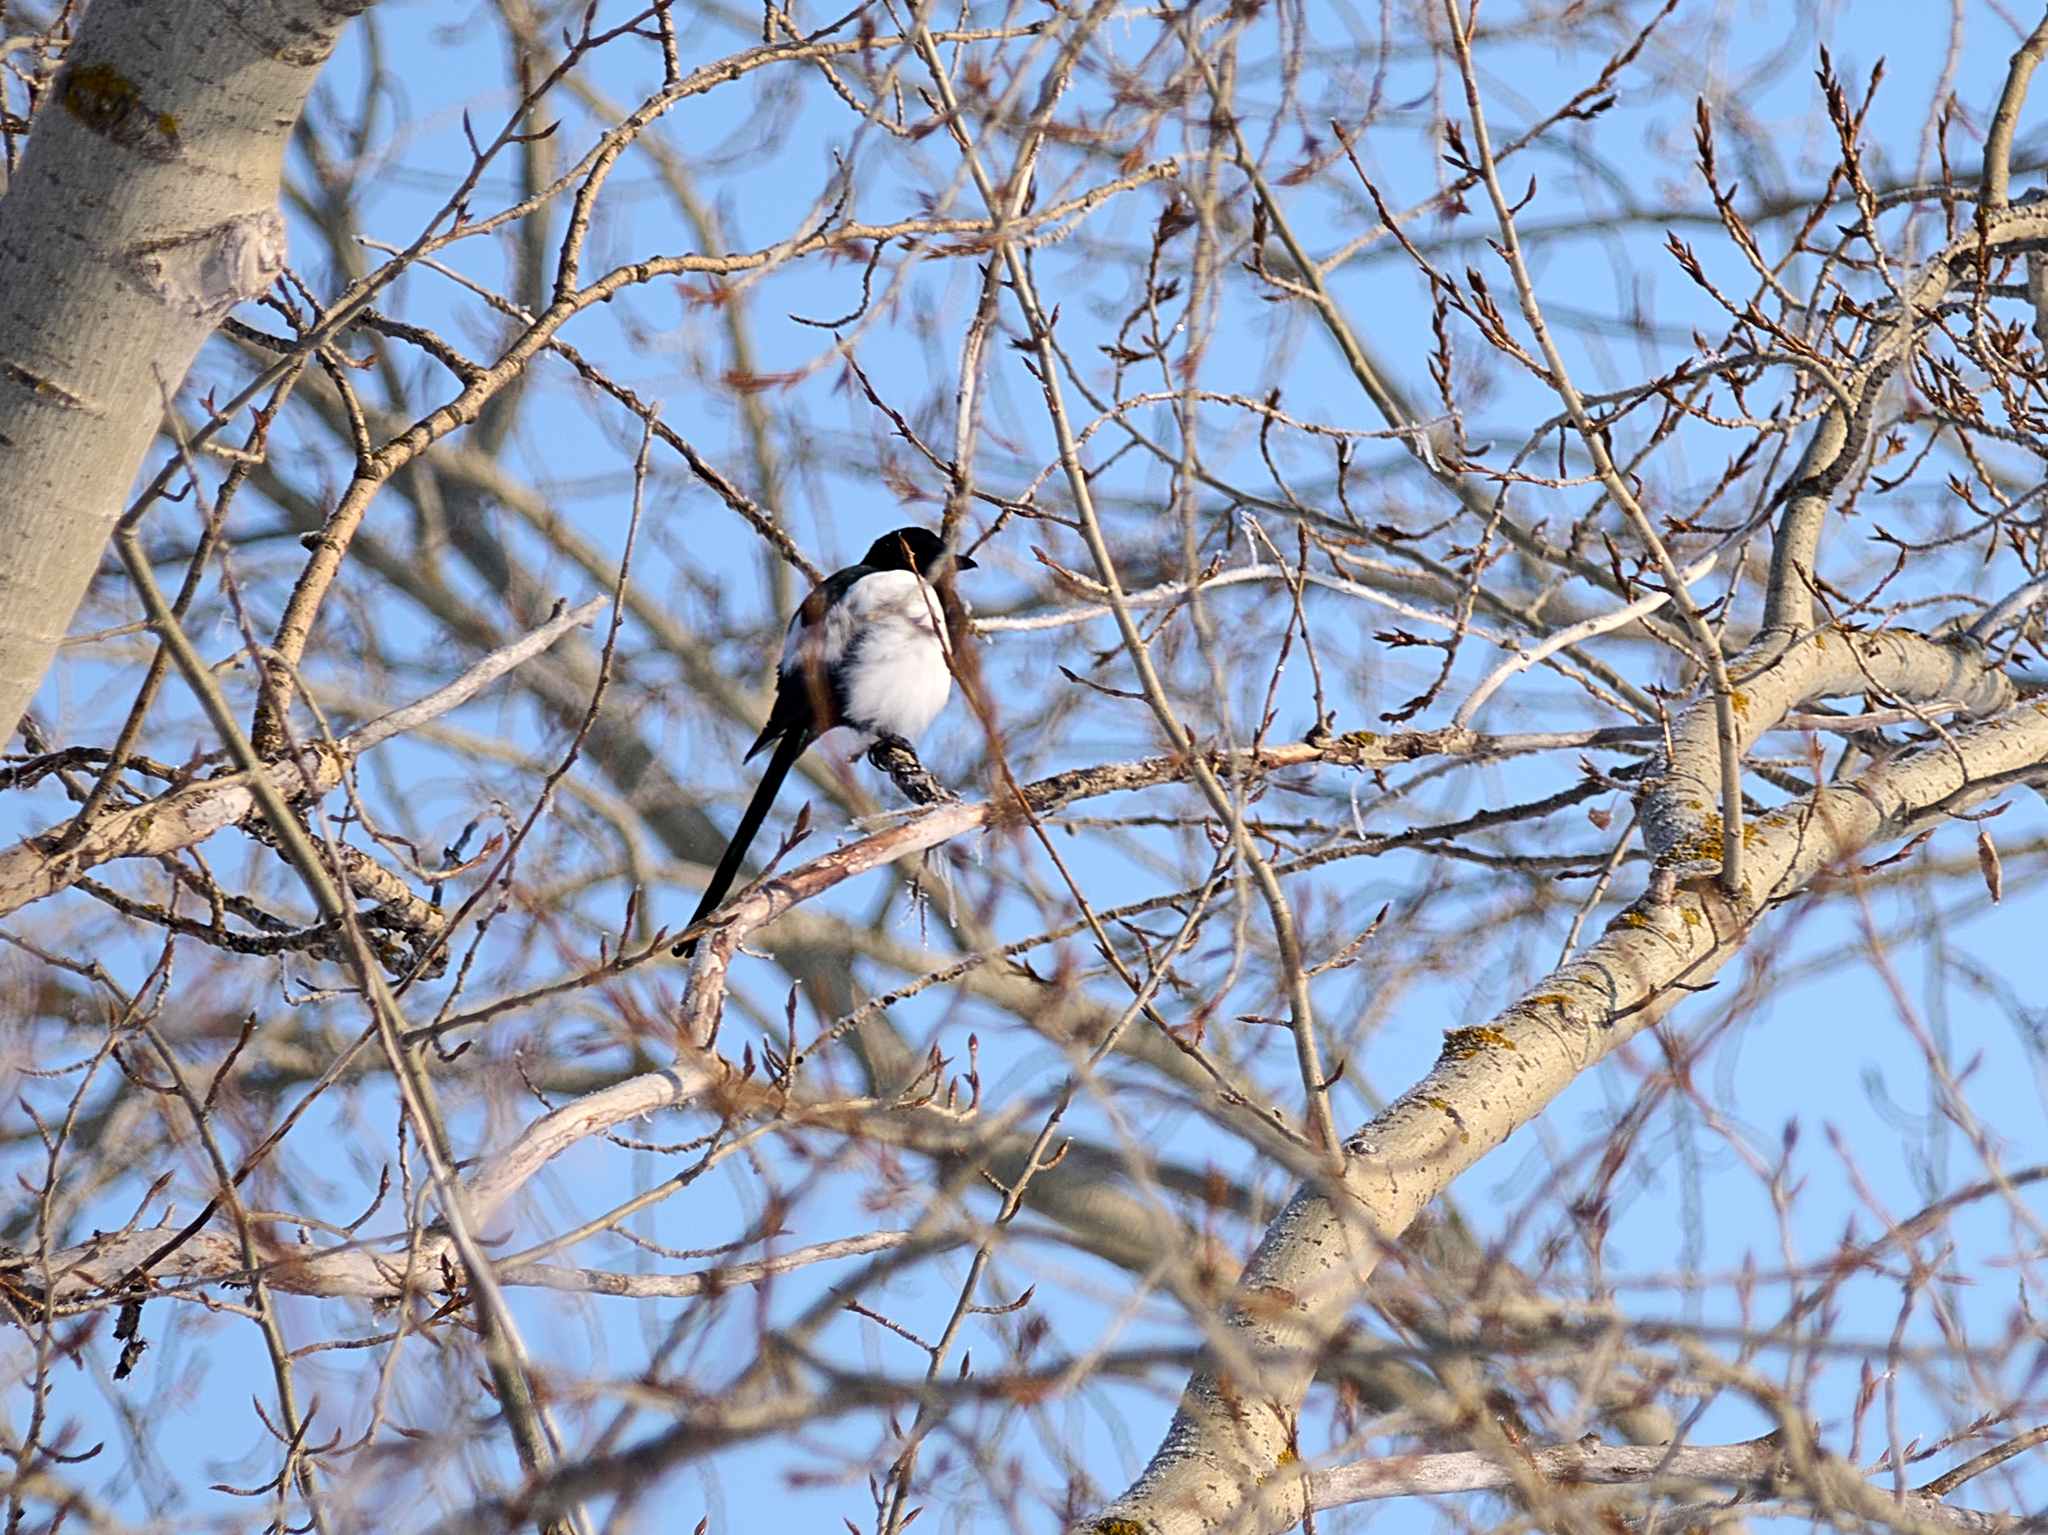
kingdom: Animalia
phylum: Chordata
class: Aves
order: Passeriformes
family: Corvidae
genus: Pica
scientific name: Pica pica
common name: Eurasian magpie
